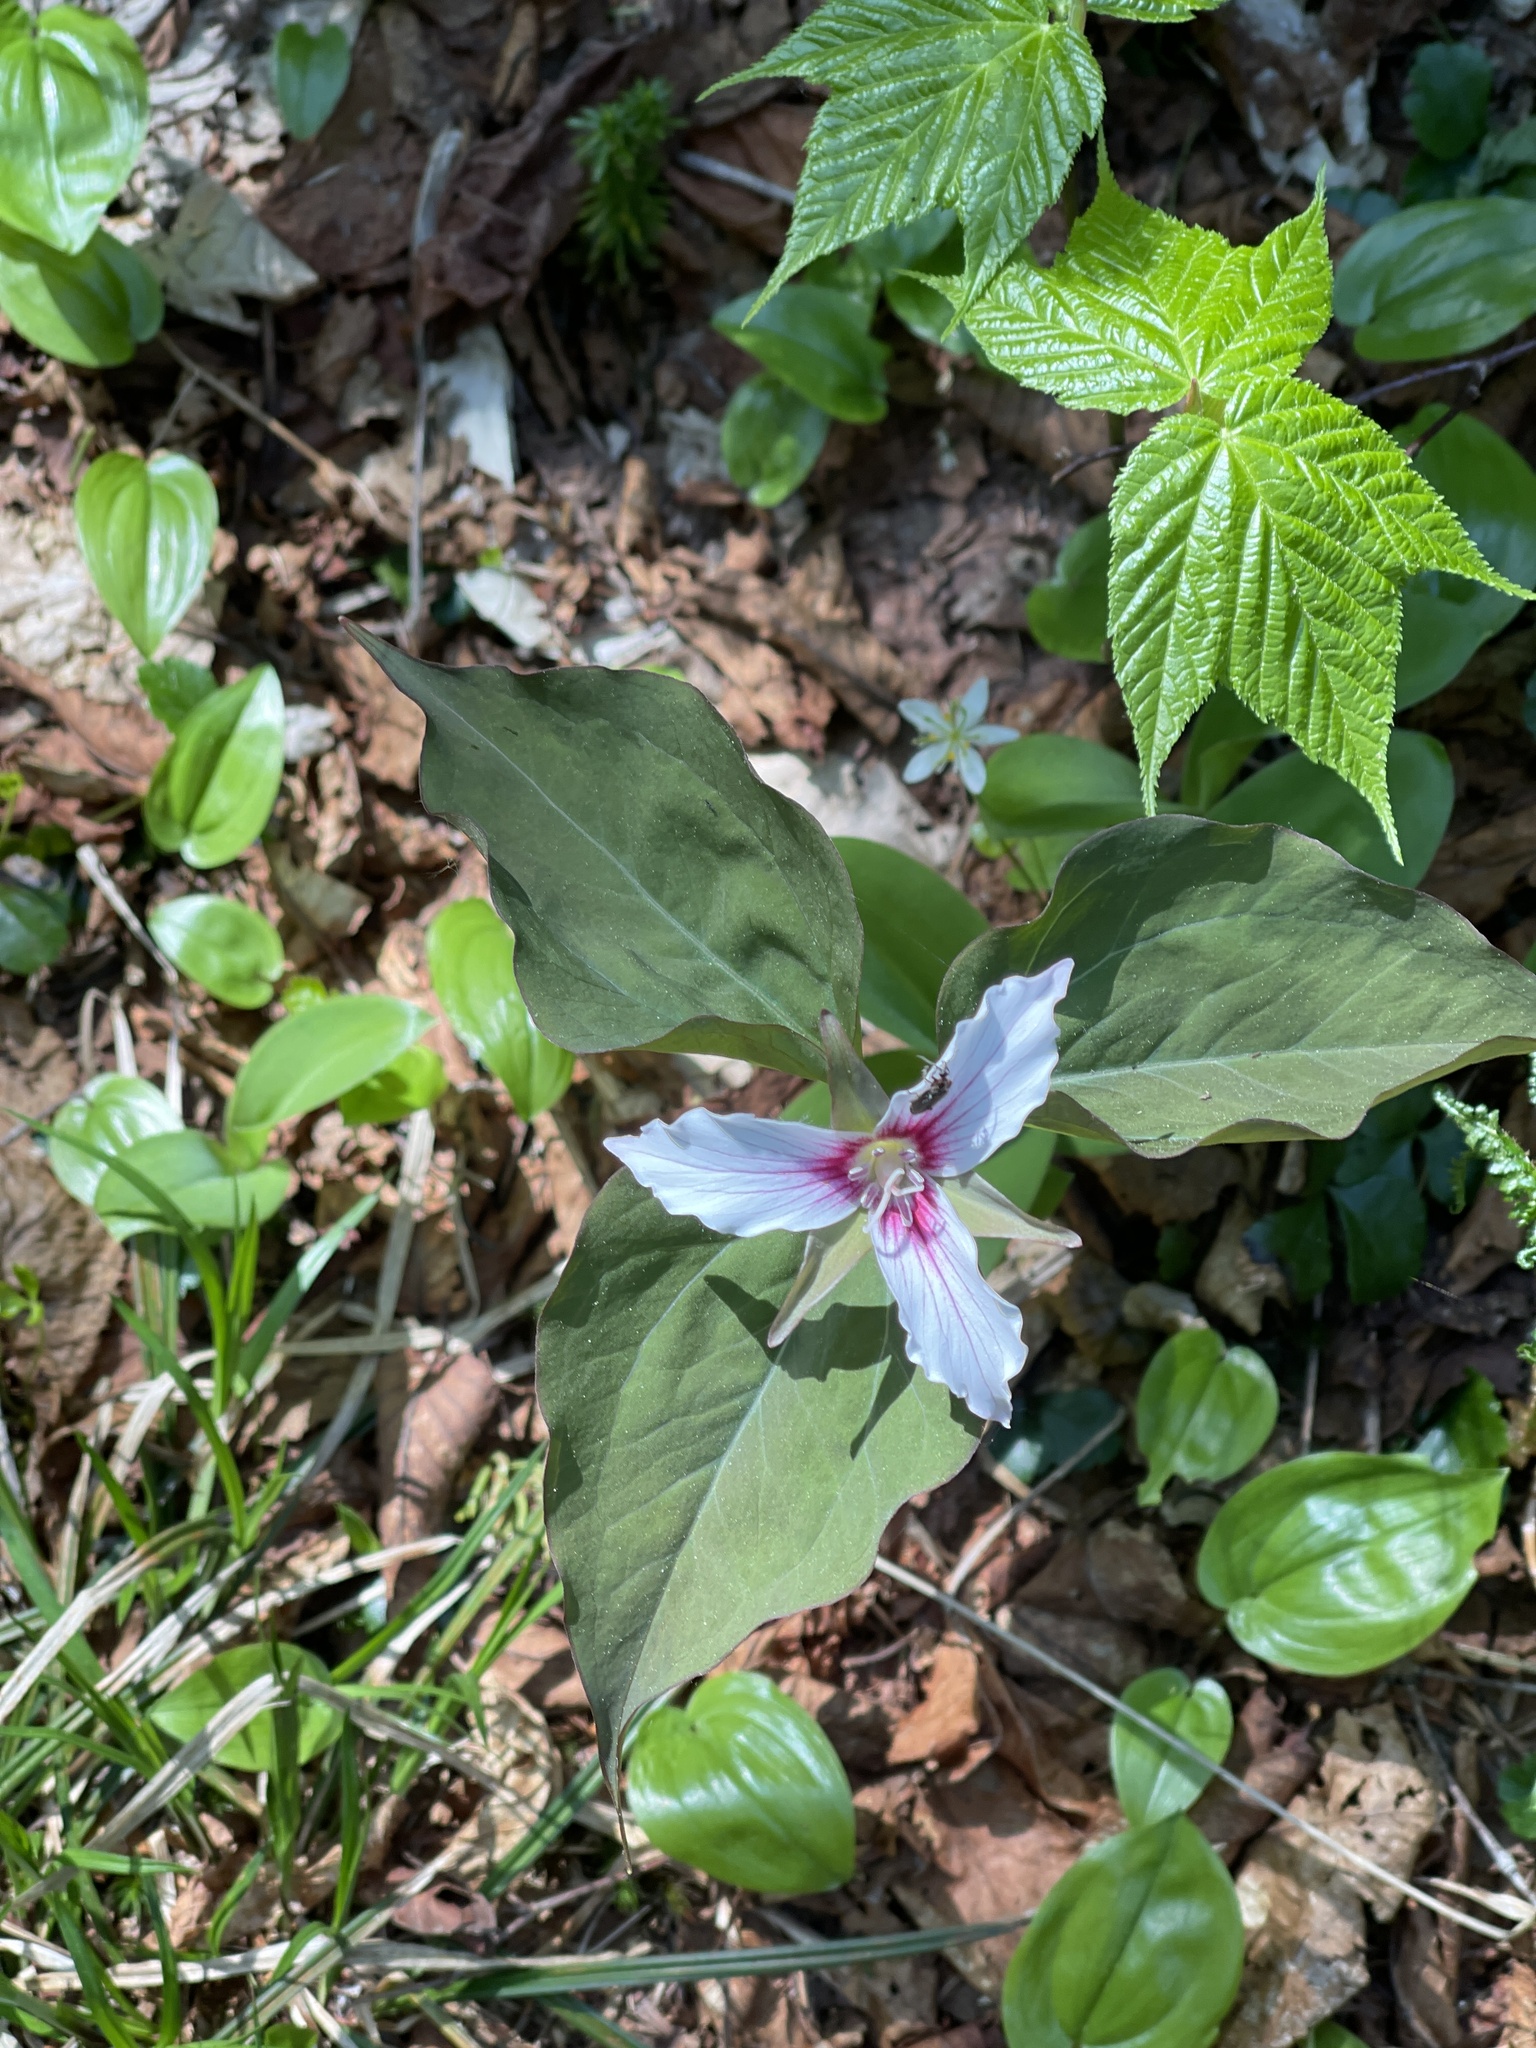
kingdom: Plantae
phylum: Tracheophyta
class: Liliopsida
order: Liliales
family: Melanthiaceae
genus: Trillium
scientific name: Trillium undulatum
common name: Paint trillium
